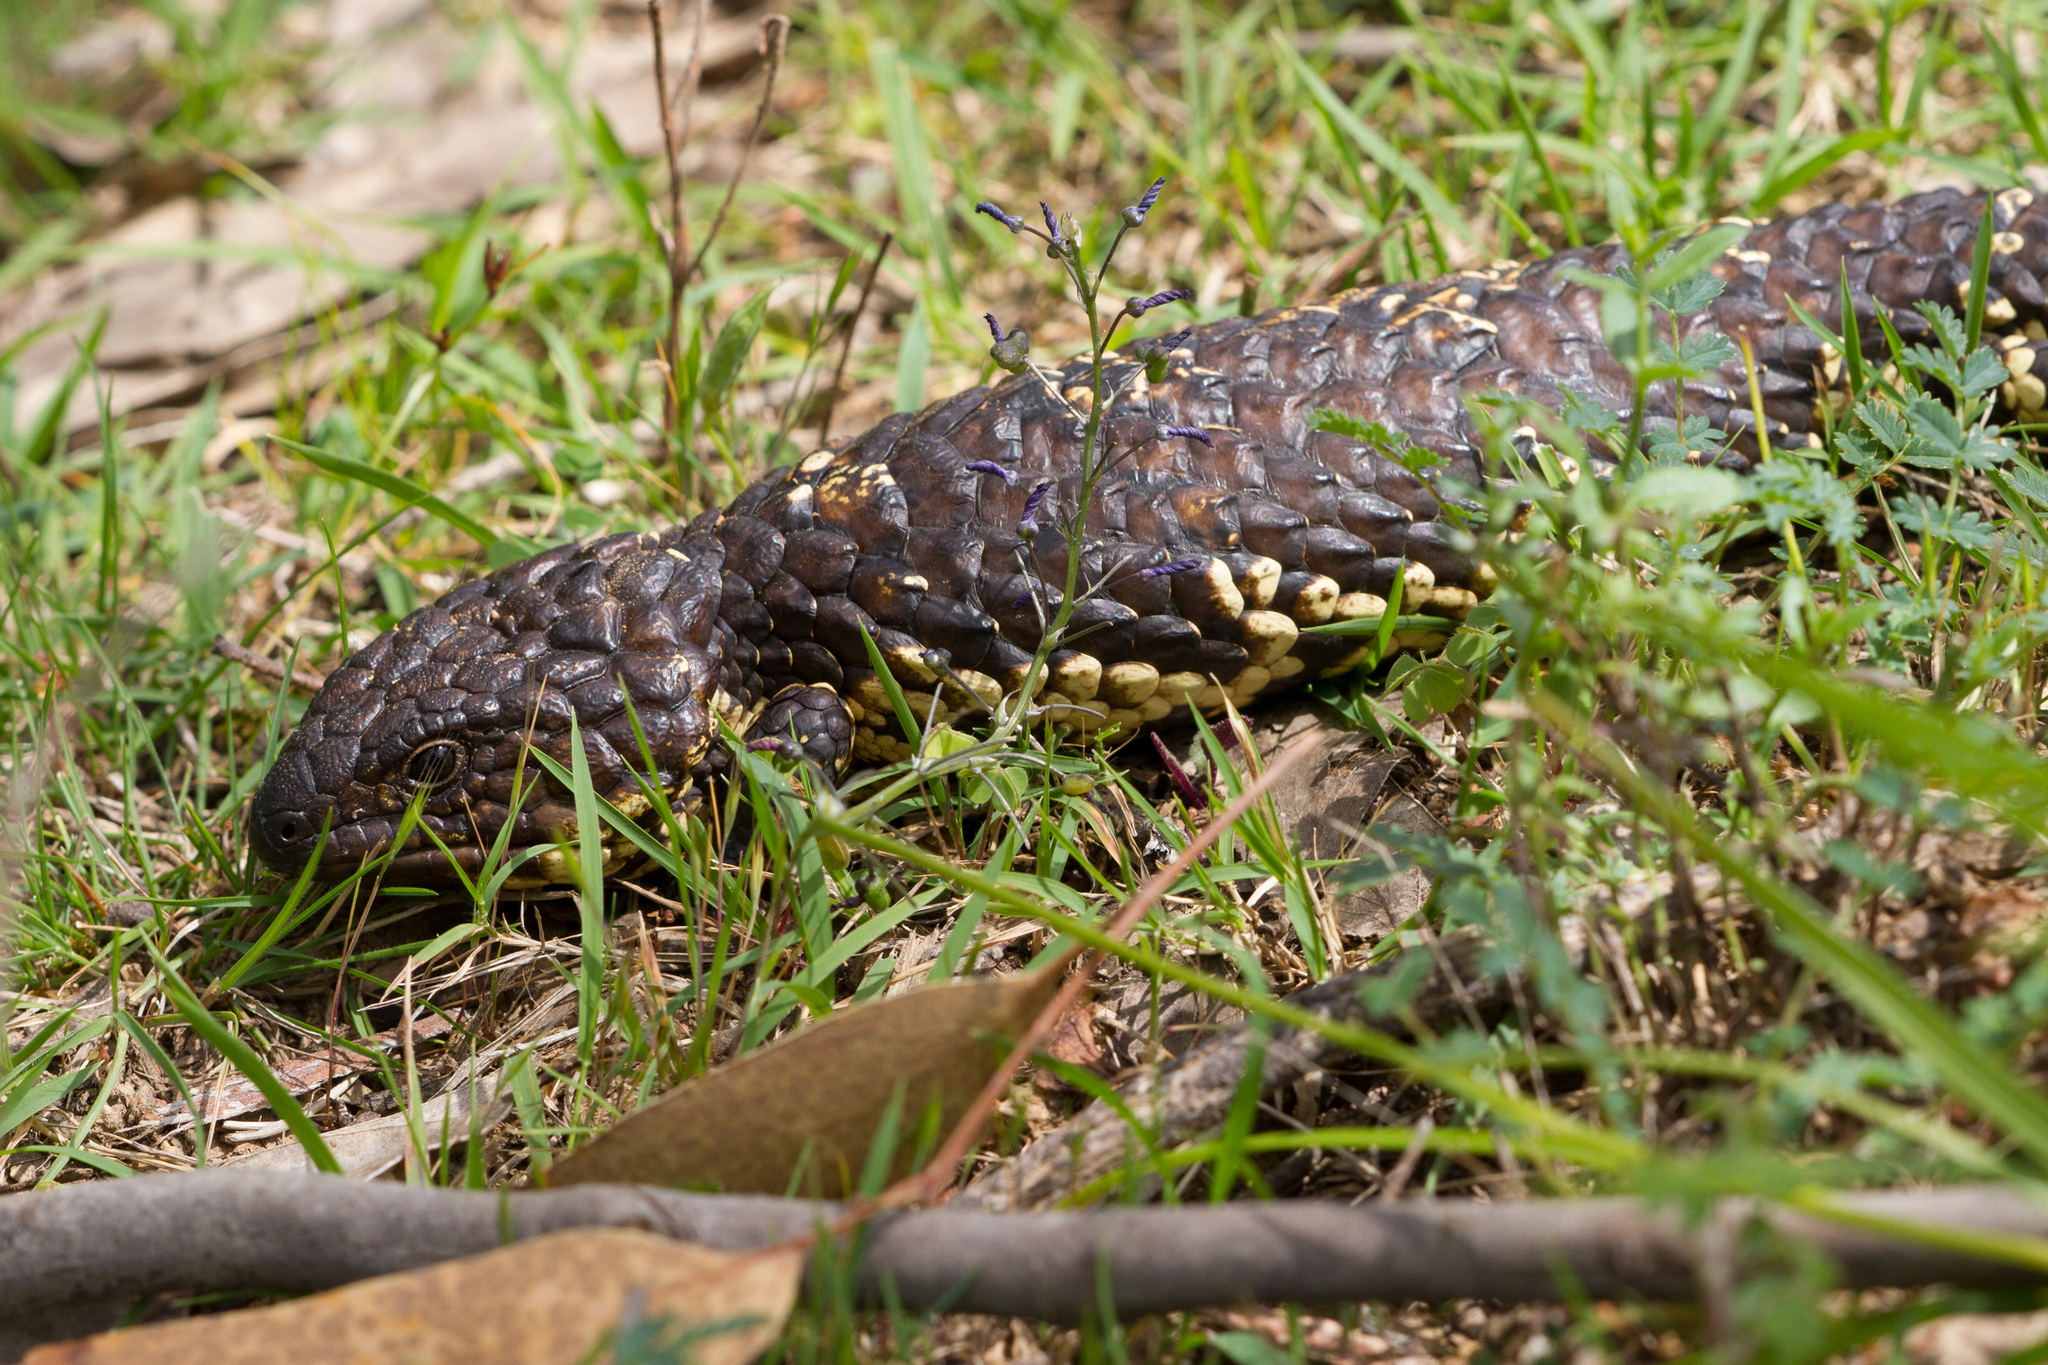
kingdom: Animalia
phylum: Chordata
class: Squamata
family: Scincidae
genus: Tiliqua
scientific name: Tiliqua rugosa
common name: Pinecone lizard
